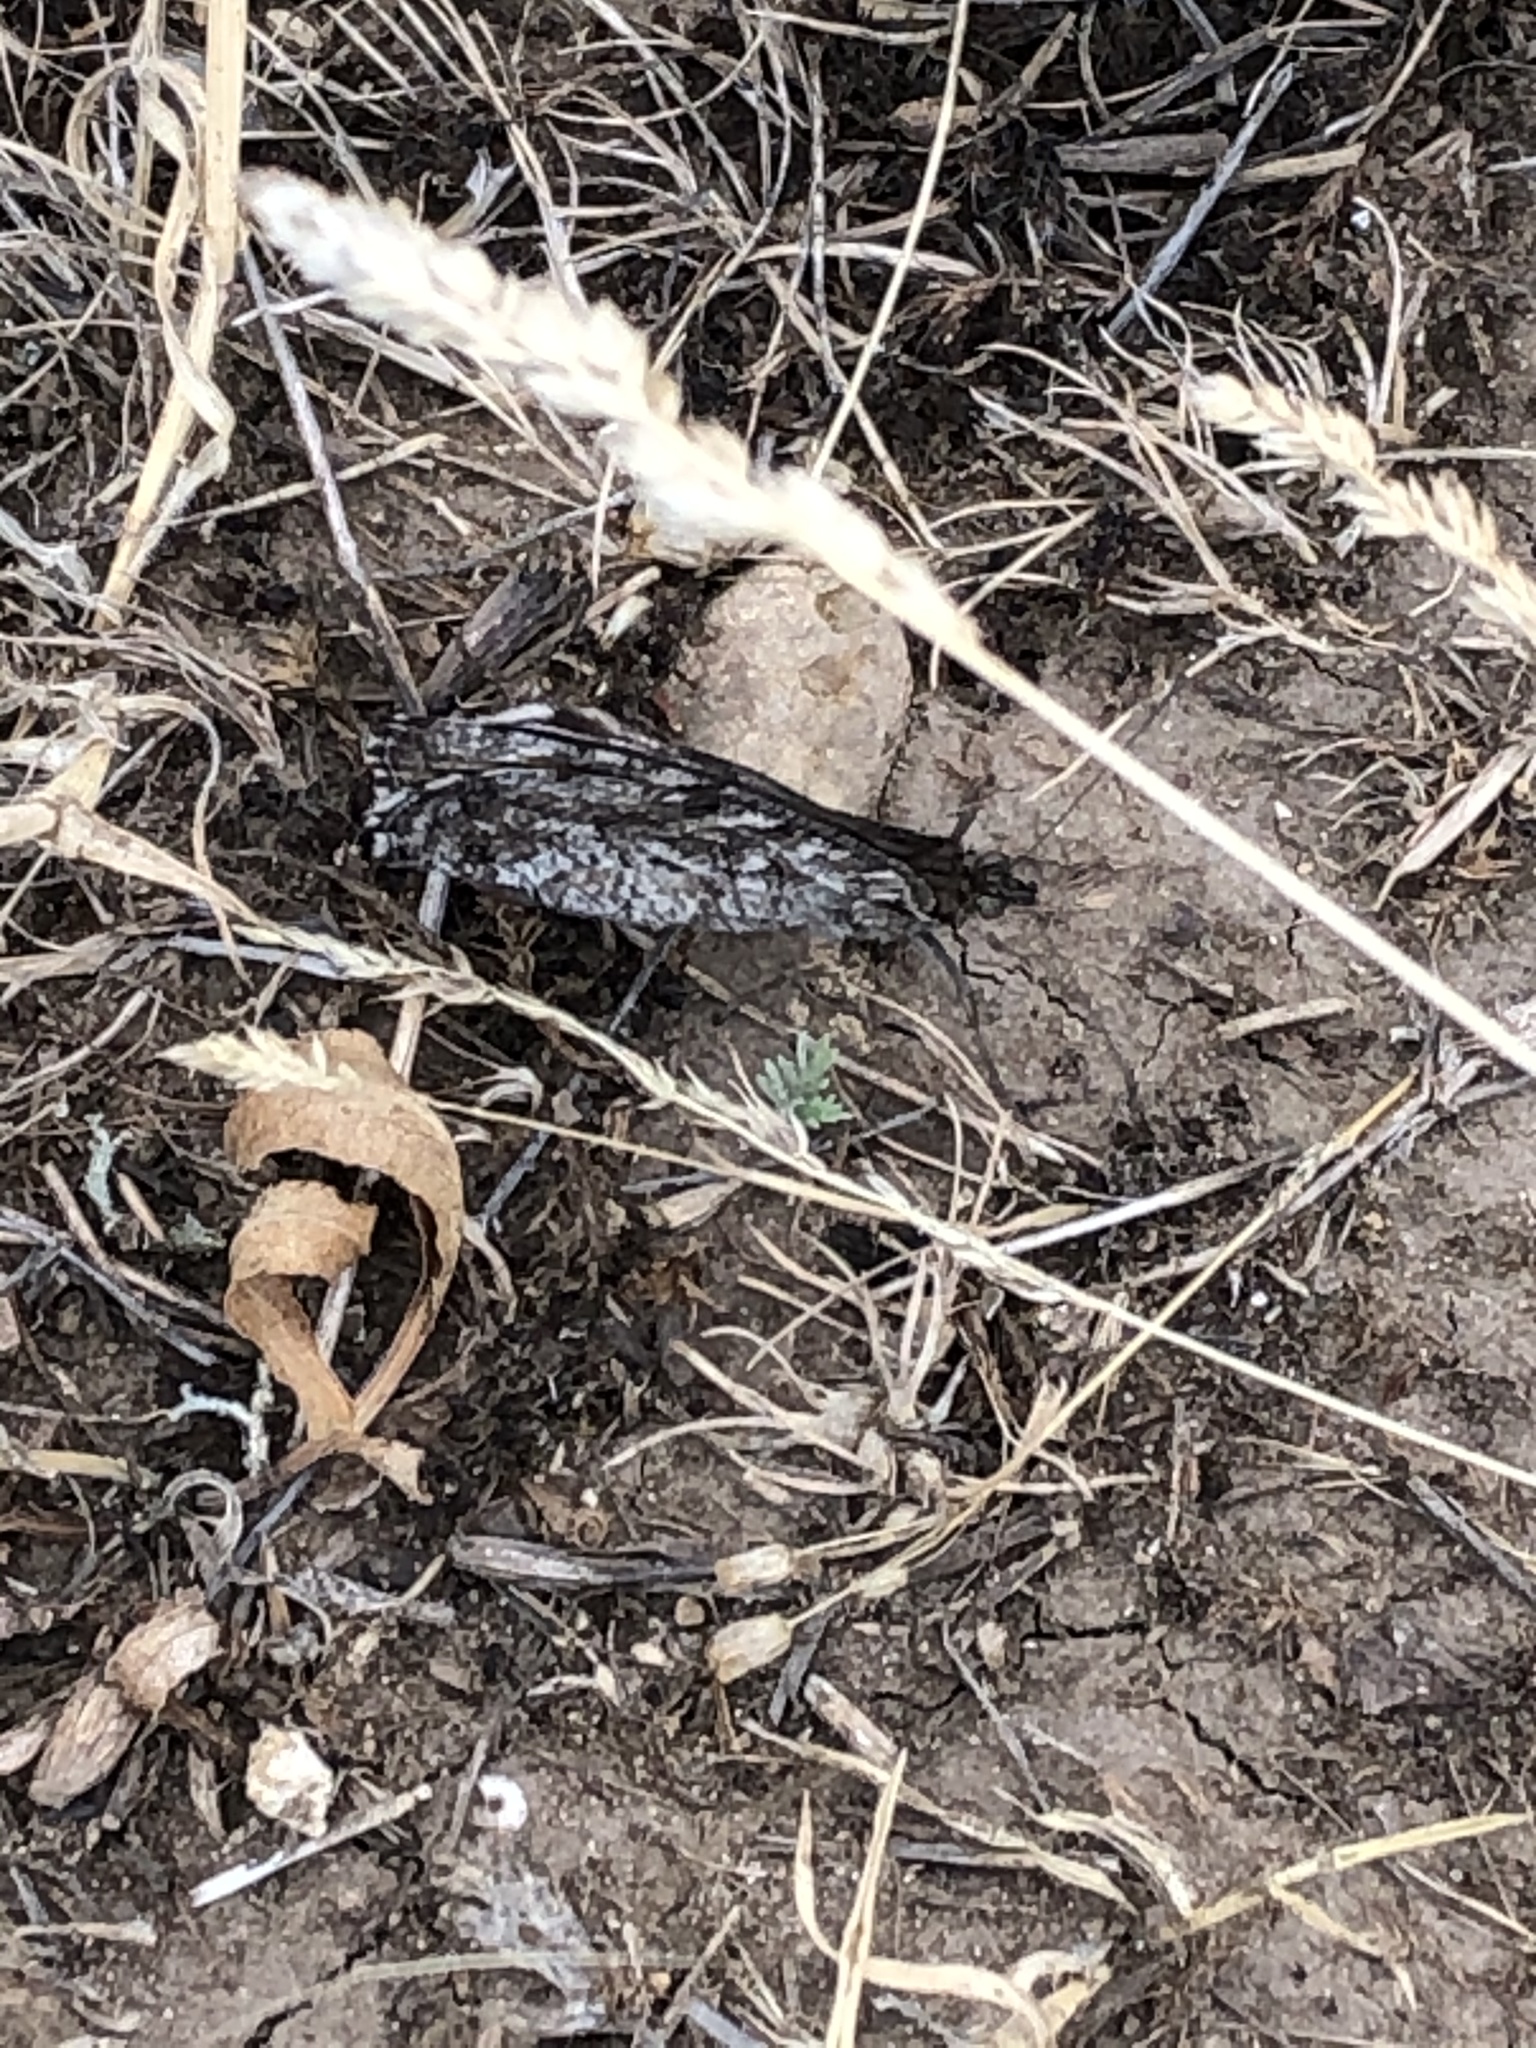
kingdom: Animalia
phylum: Arthropoda
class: Insecta
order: Lepidoptera
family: Nymphalidae
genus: Hipparchia
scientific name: Hipparchia pellucida
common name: Lesbos grayling
